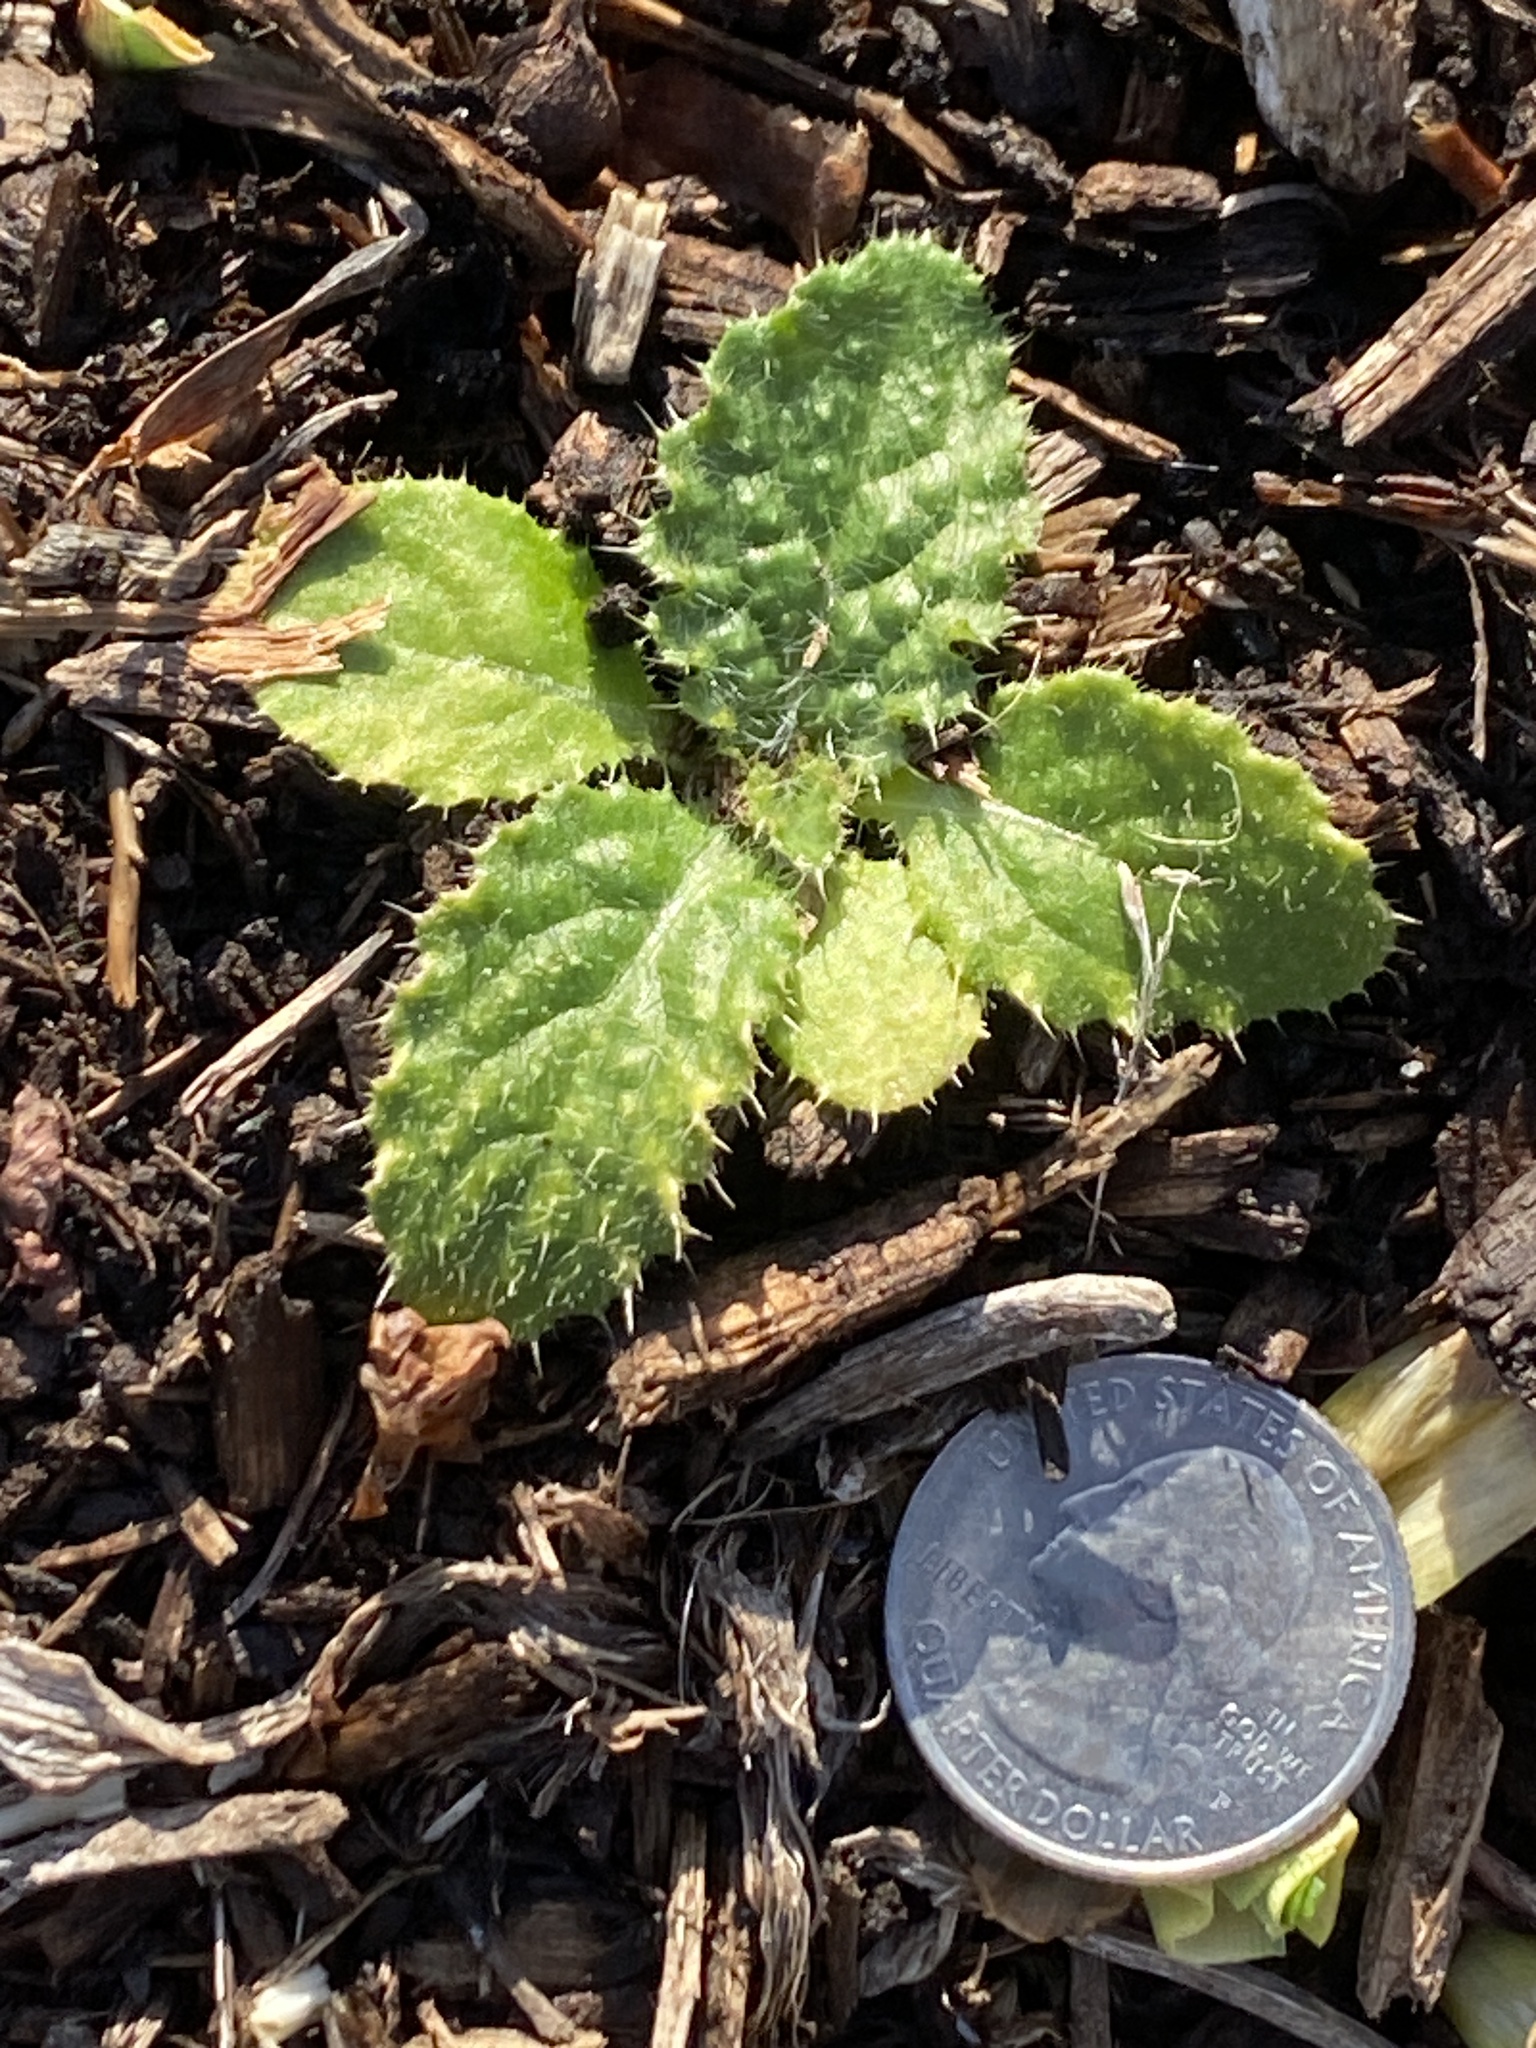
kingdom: Plantae
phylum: Tracheophyta
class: Magnoliopsida
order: Asterales
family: Asteraceae
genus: Cirsium
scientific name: Cirsium vulgare
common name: Bull thistle
